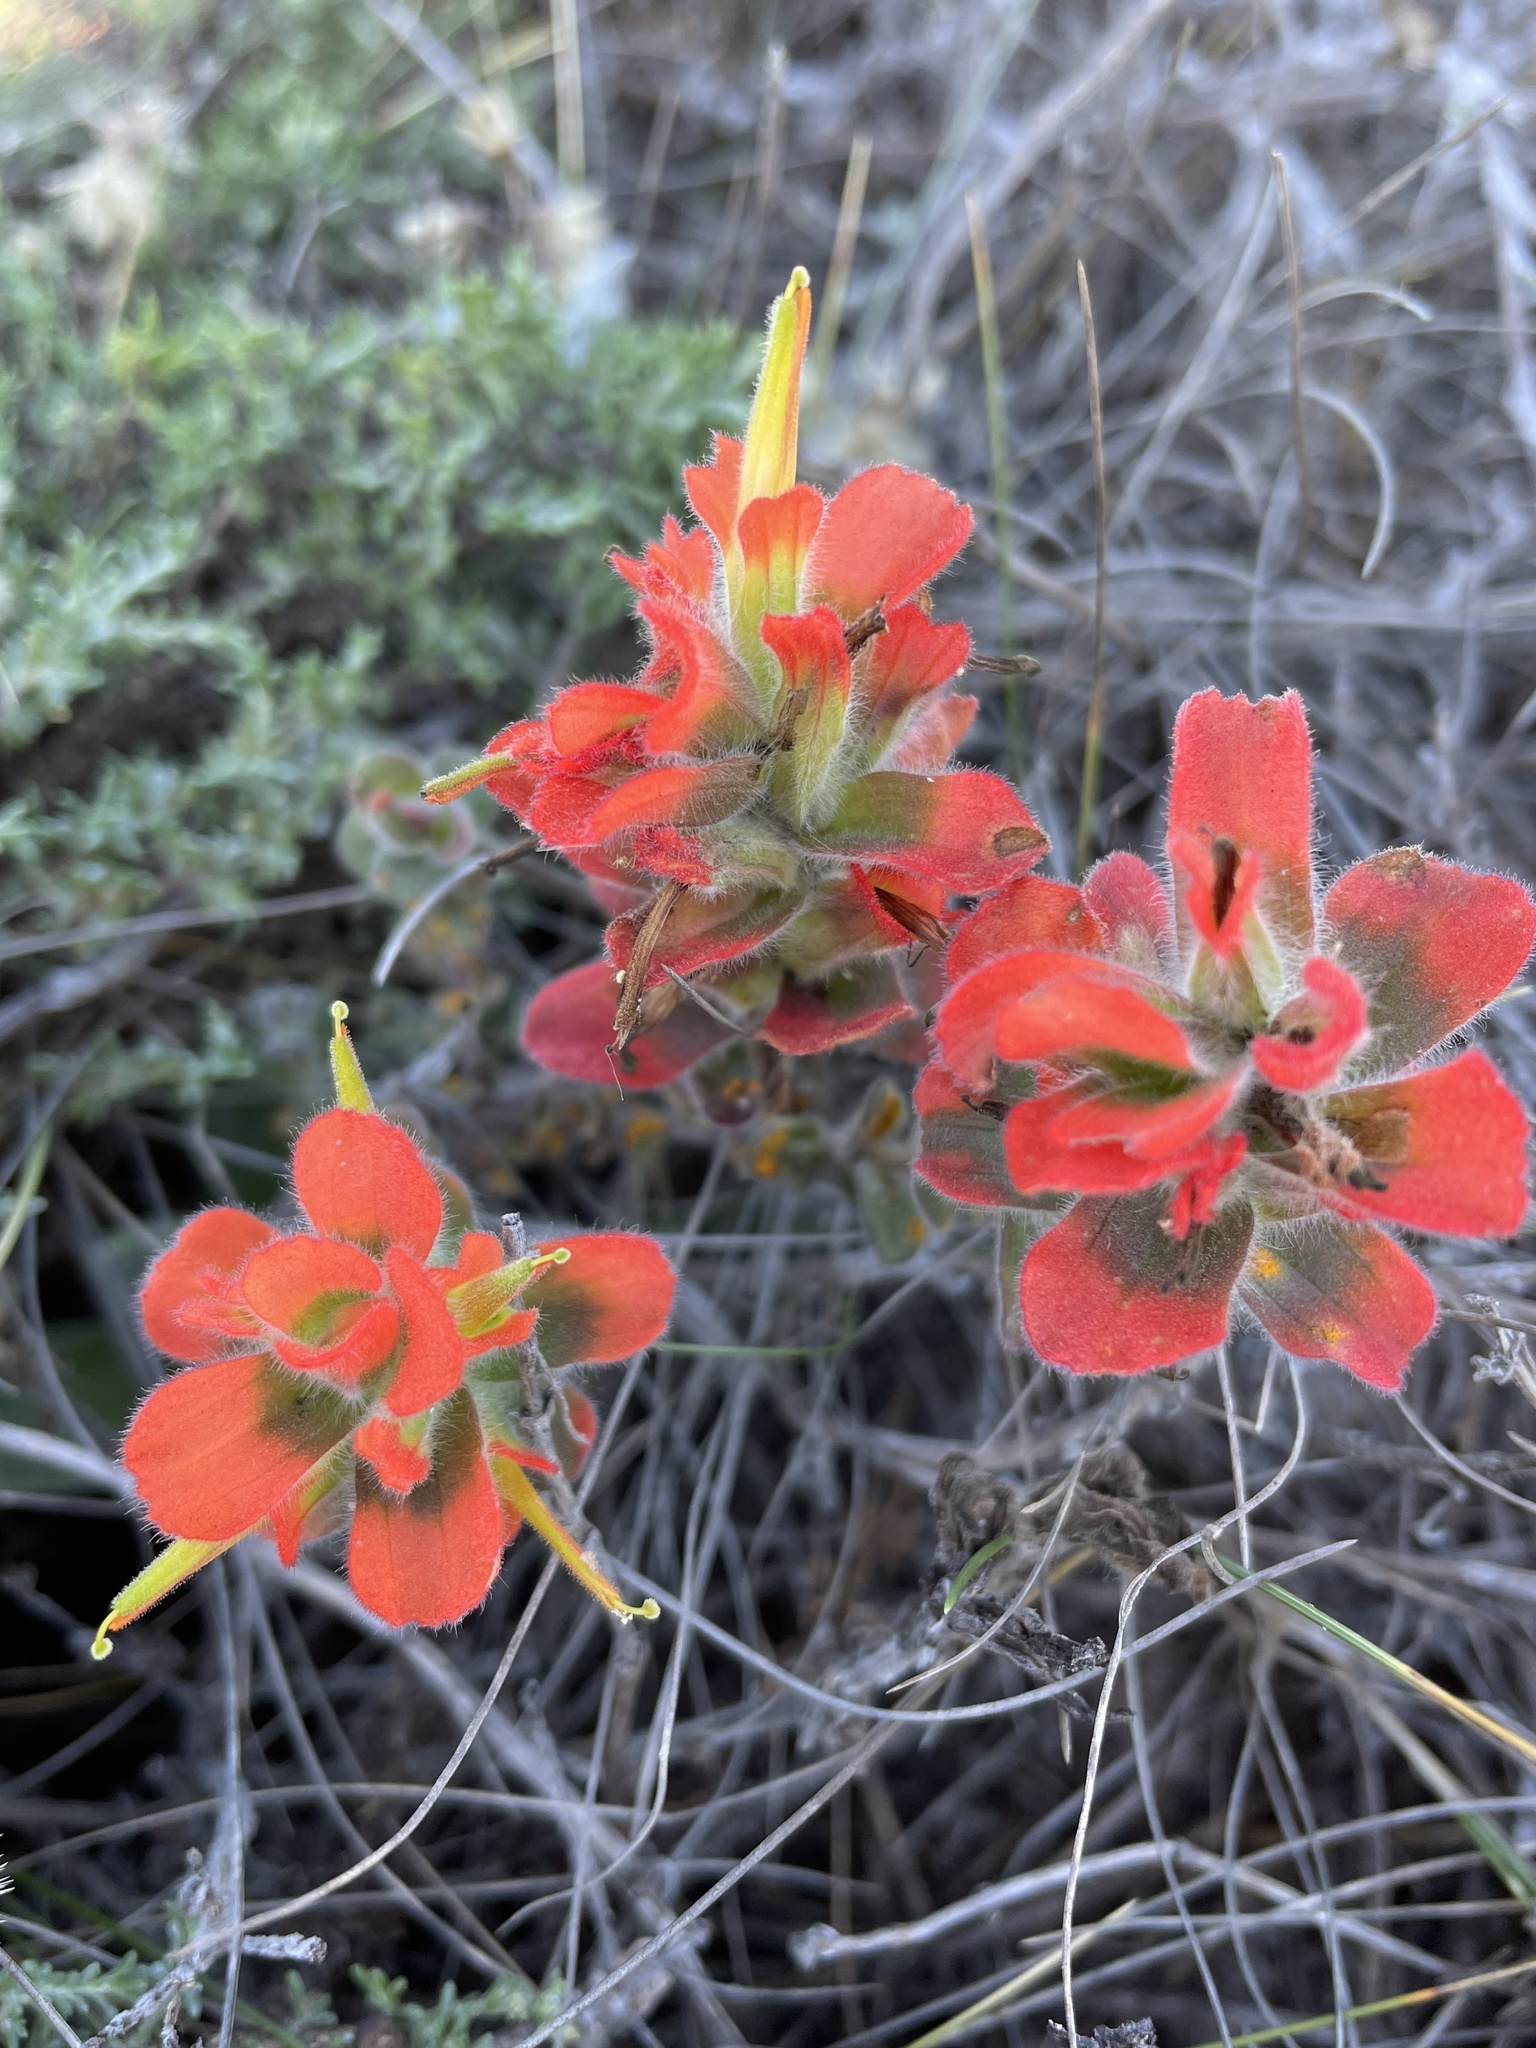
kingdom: Plantae
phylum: Tracheophyta
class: Magnoliopsida
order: Lamiales
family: Orobanchaceae
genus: Castilleja
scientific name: Castilleja latifolia
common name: Monterey indian paintbrush
